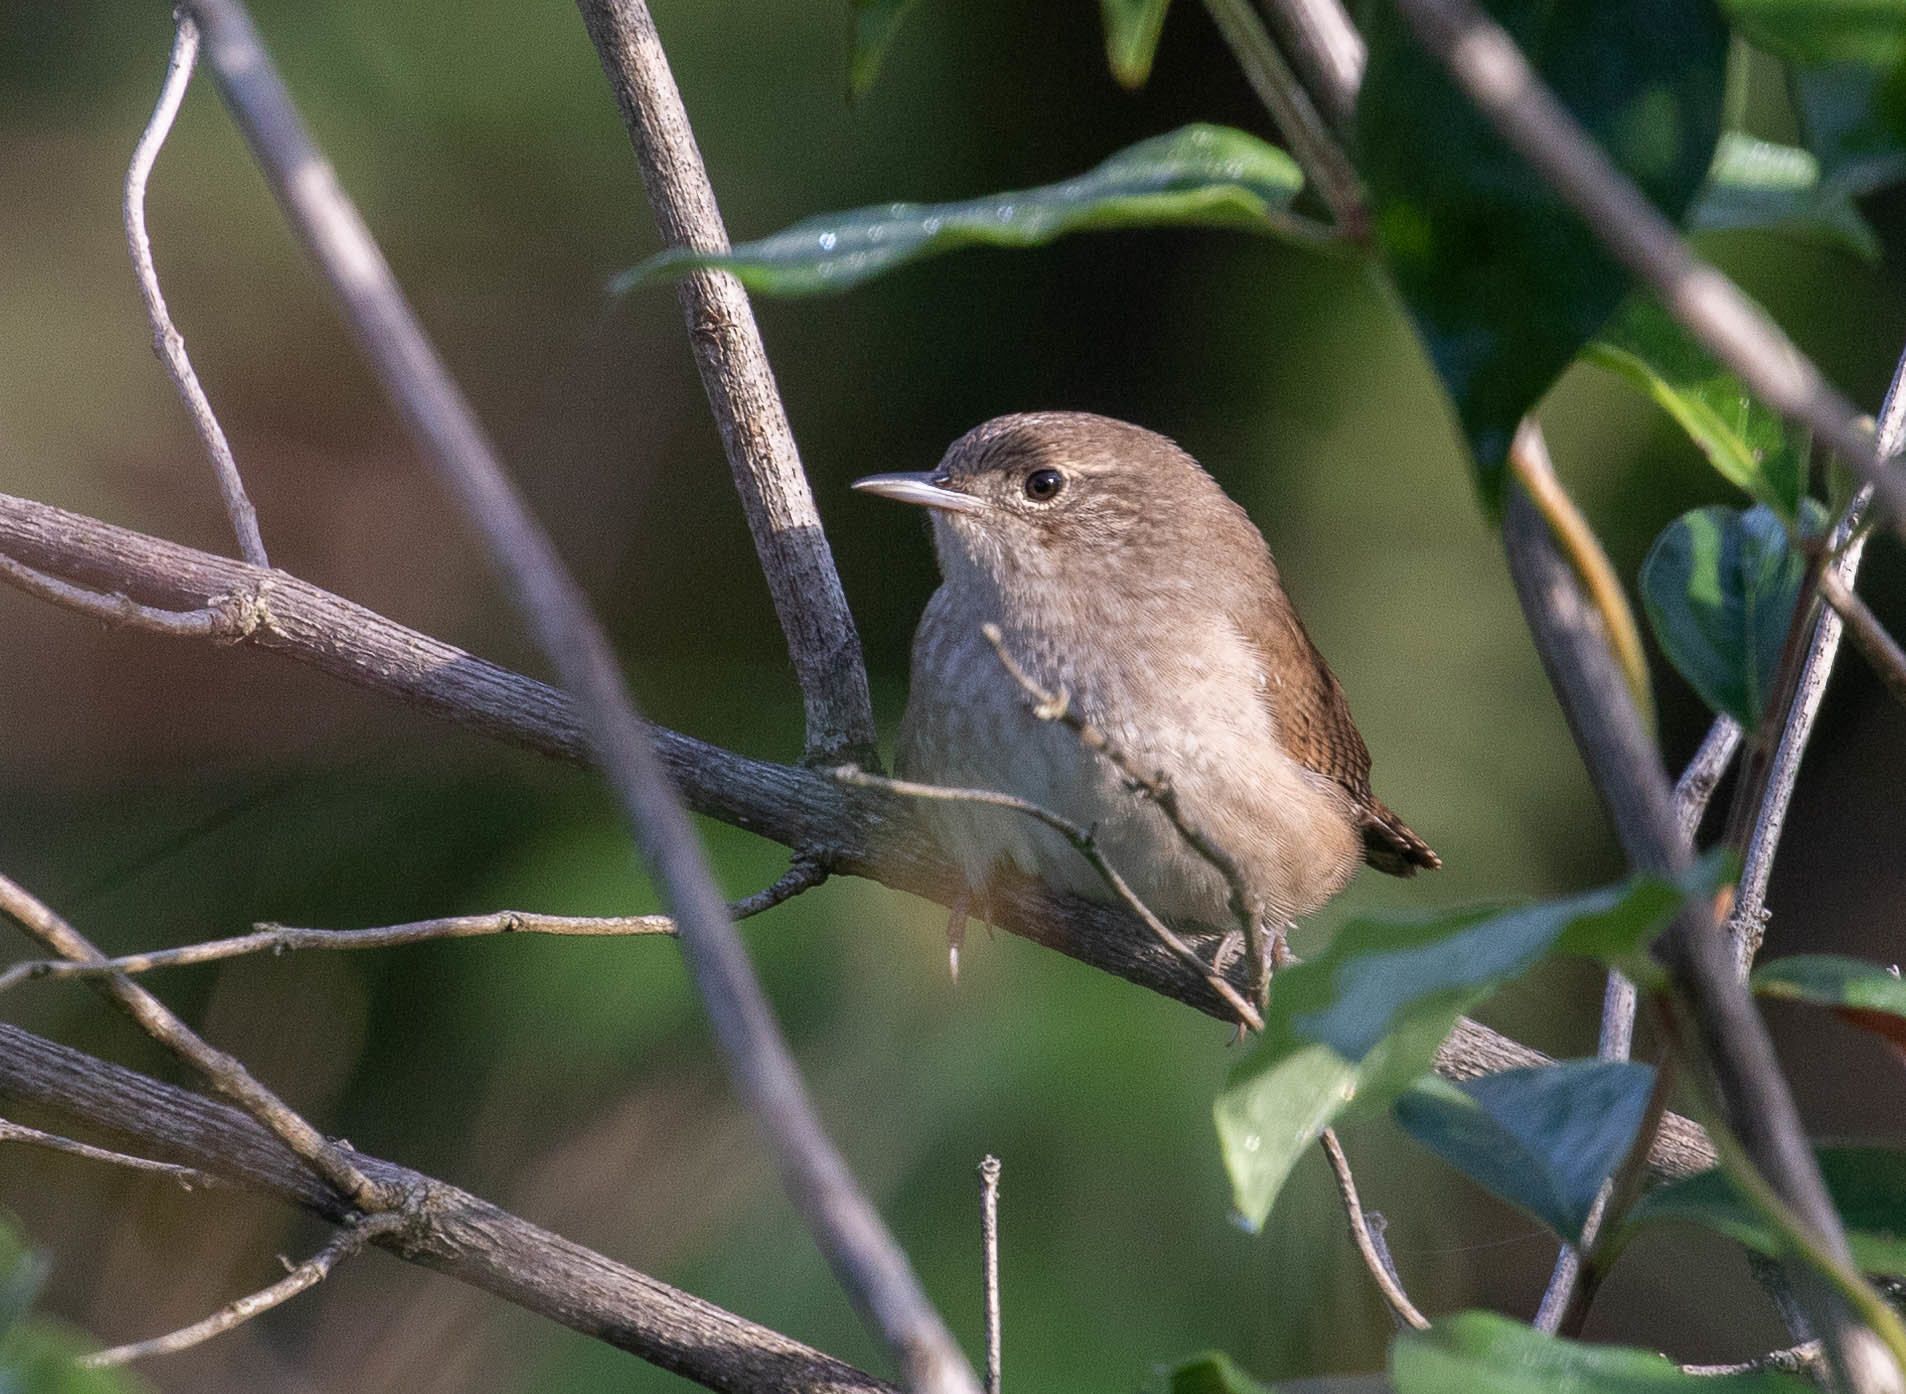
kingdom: Animalia
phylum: Chordata
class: Aves
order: Passeriformes
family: Troglodytidae
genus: Troglodytes
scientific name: Troglodytes aedon
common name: House wren
